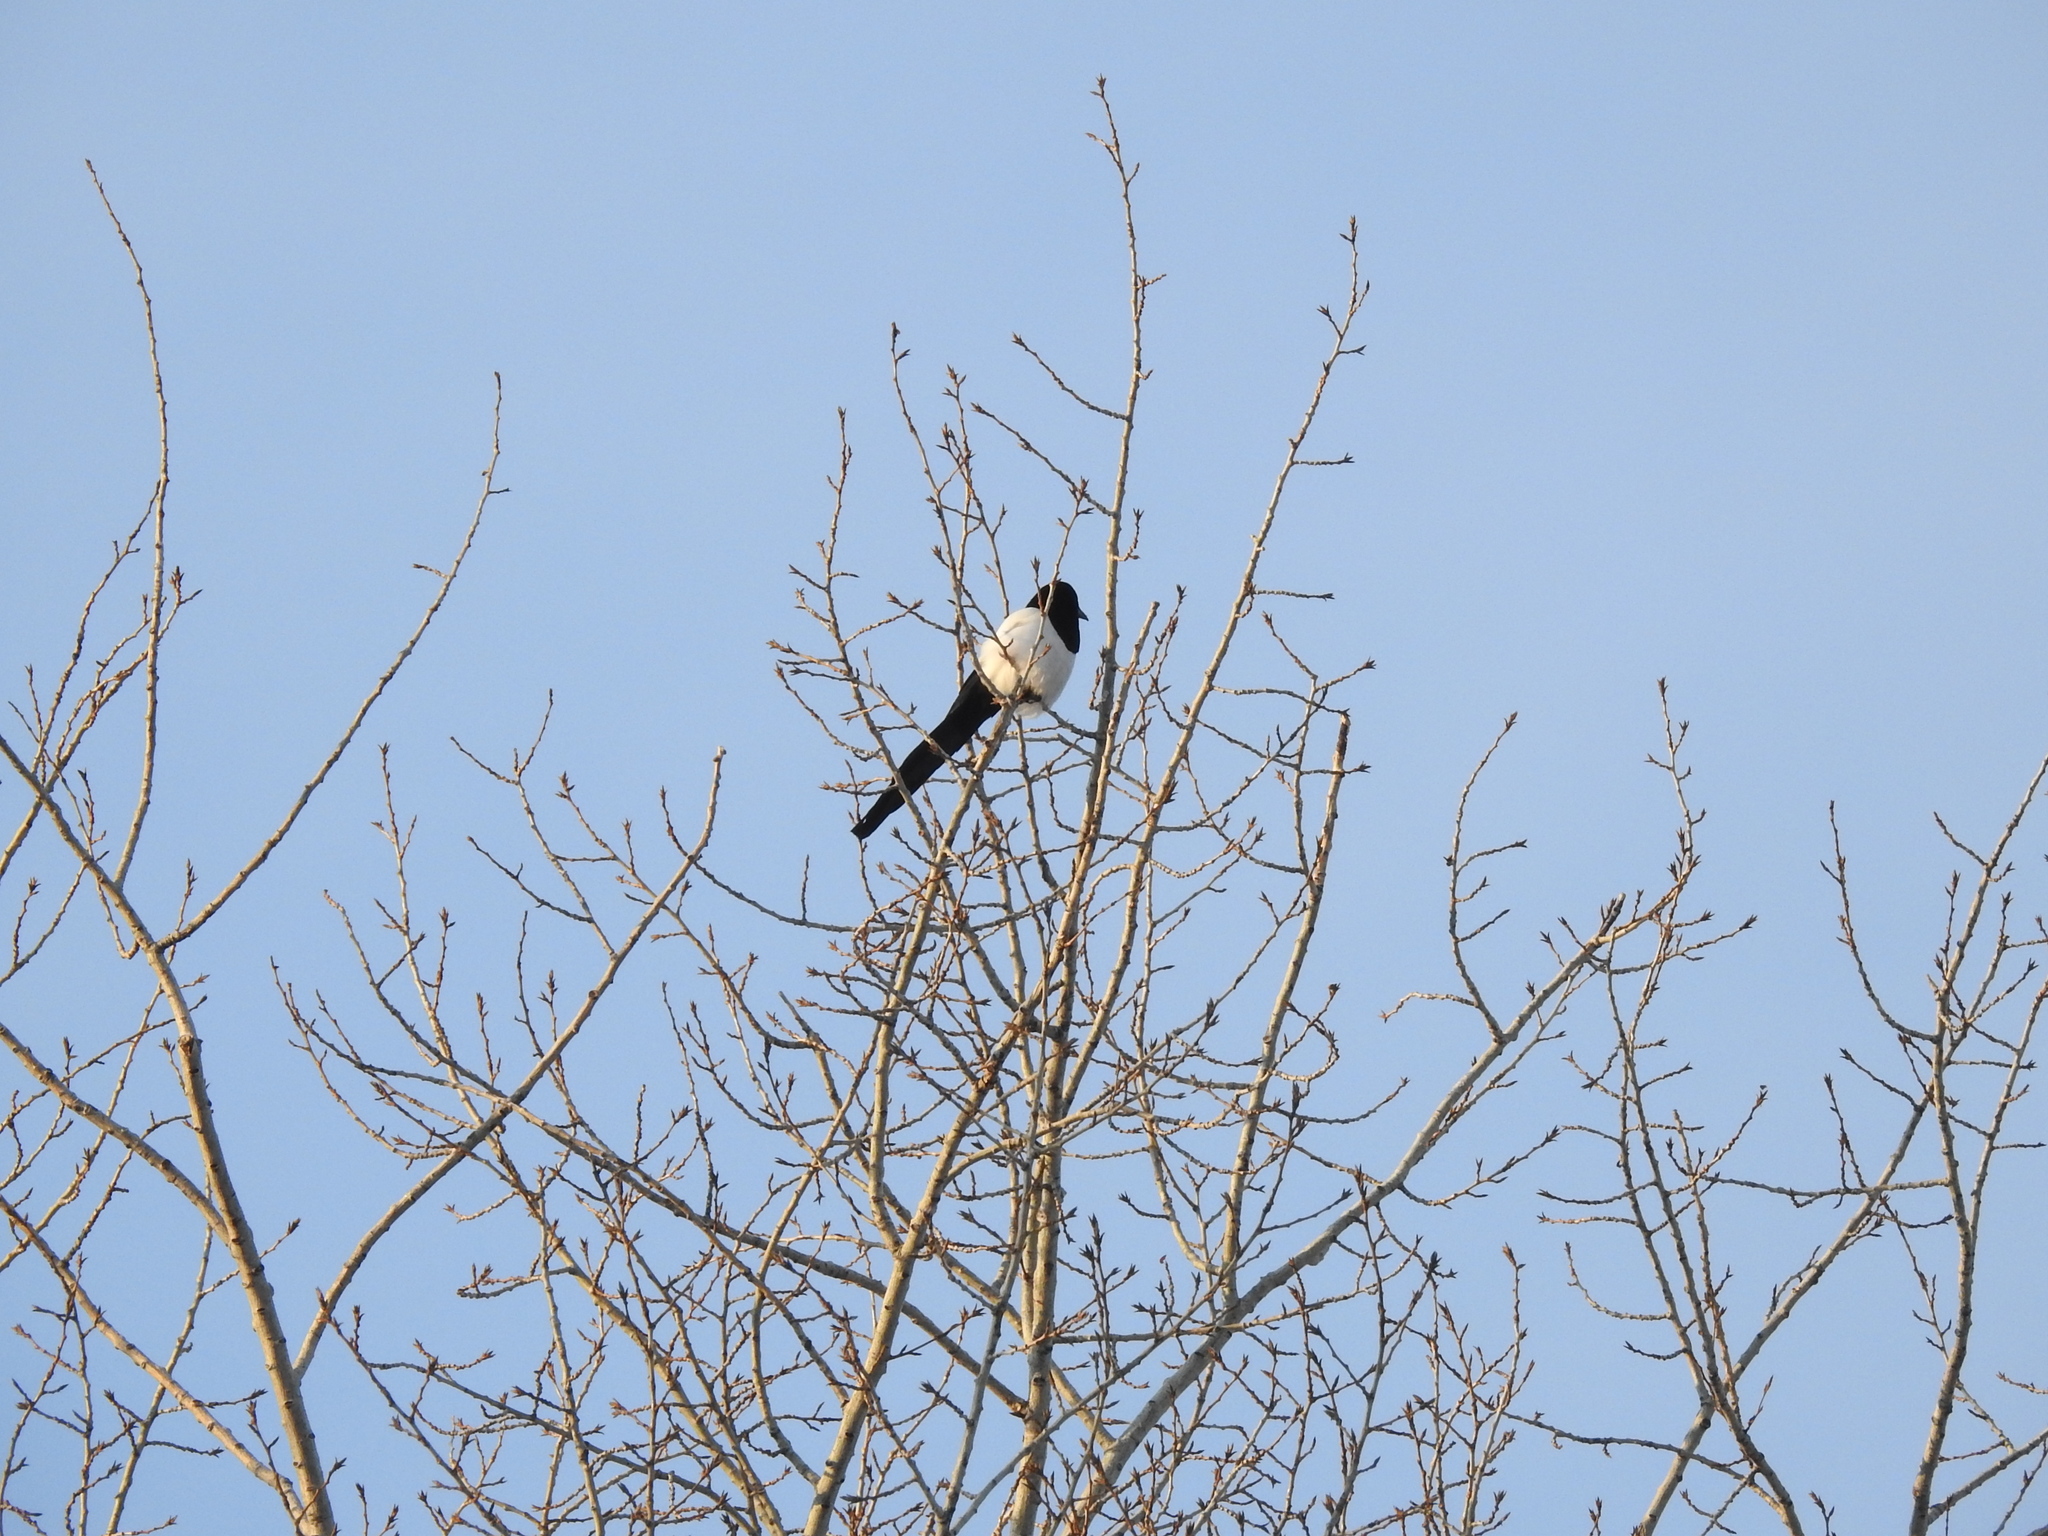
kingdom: Animalia
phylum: Chordata
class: Aves
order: Passeriformes
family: Corvidae
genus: Pica
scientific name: Pica pica
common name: Eurasian magpie
